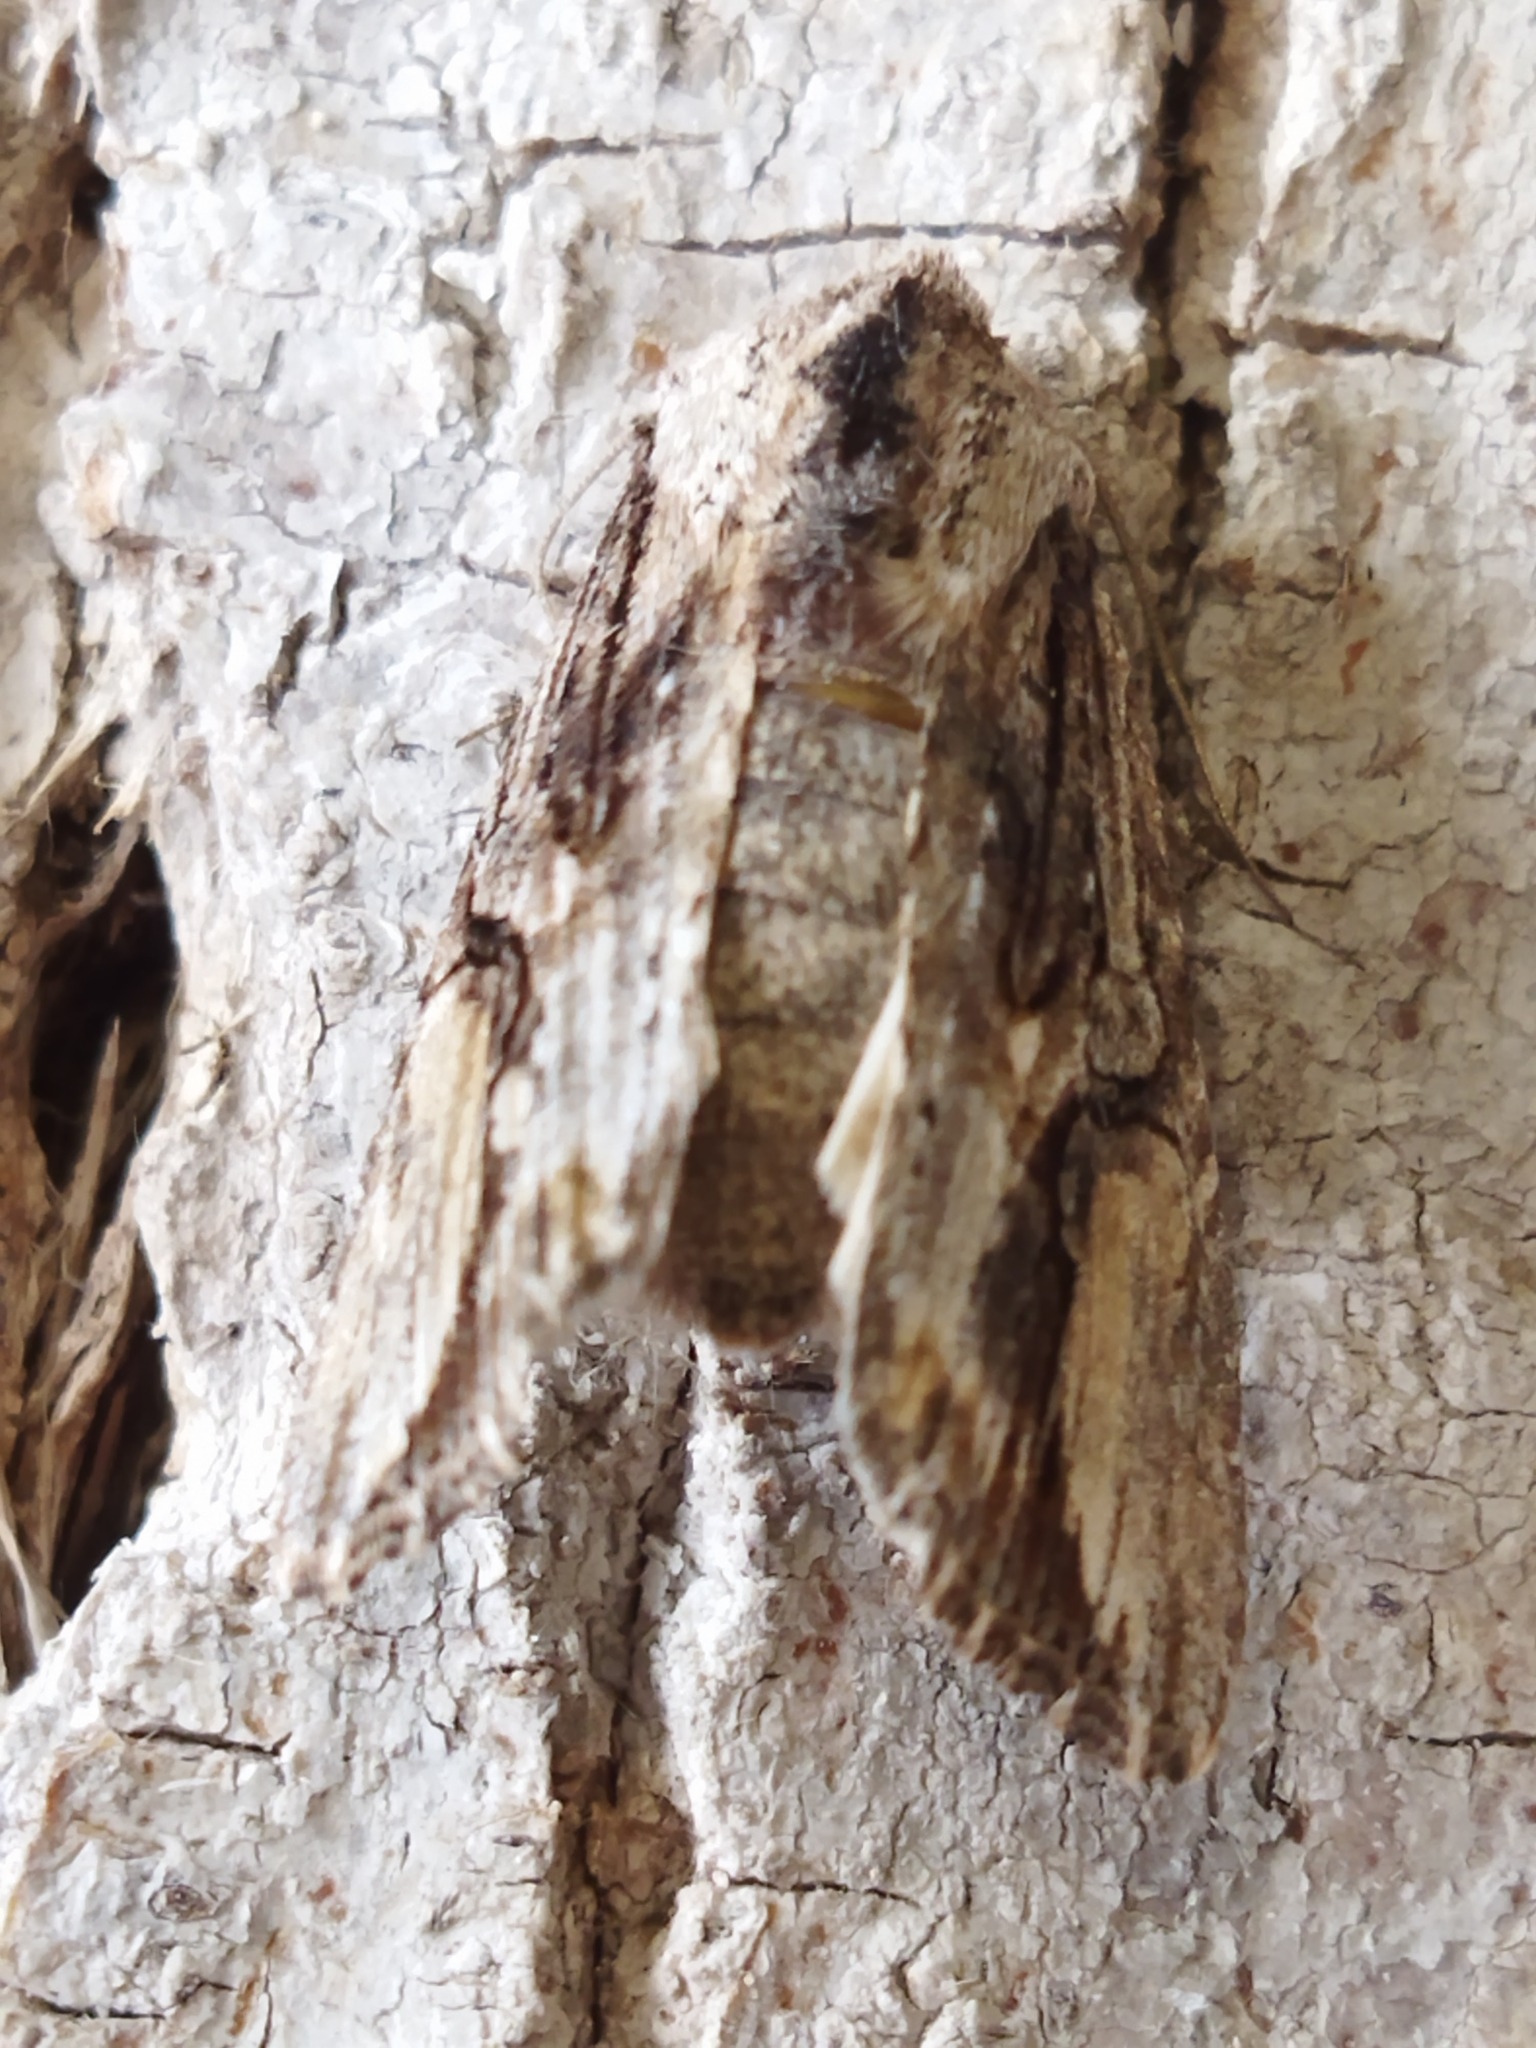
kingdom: Animalia
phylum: Arthropoda
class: Insecta
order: Lepidoptera
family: Noctuidae
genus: Egira
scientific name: Egira
